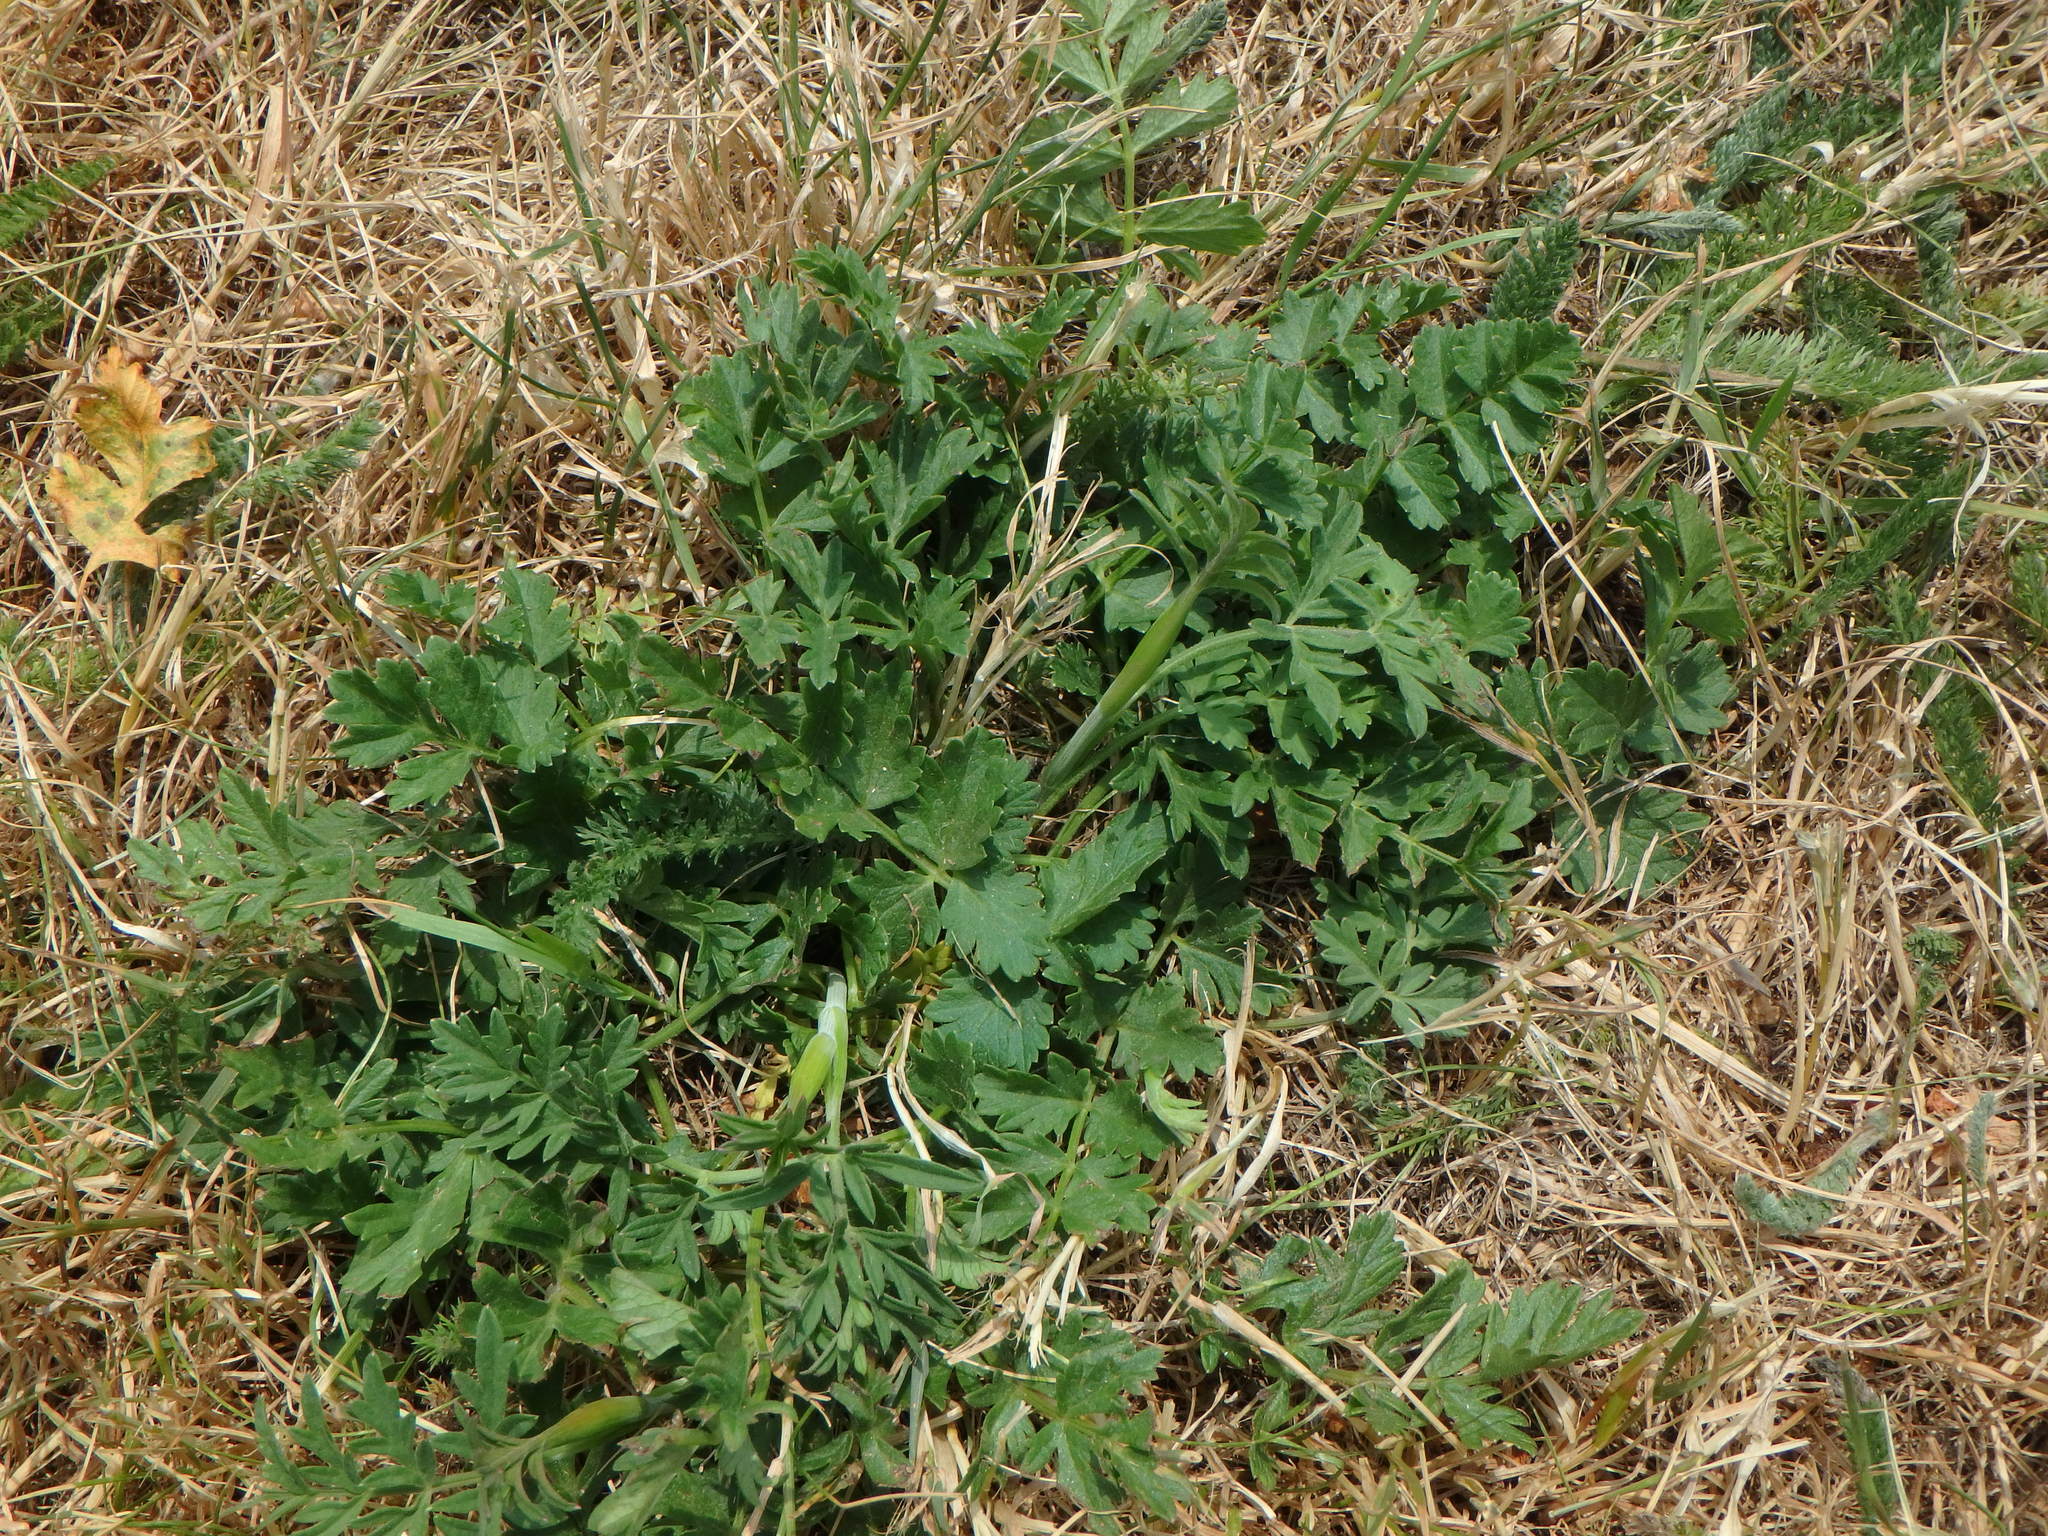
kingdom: Plantae
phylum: Tracheophyta
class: Magnoliopsida
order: Apiales
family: Apiaceae
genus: Pimpinella
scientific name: Pimpinella saxifraga
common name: Burnet-saxifrage
